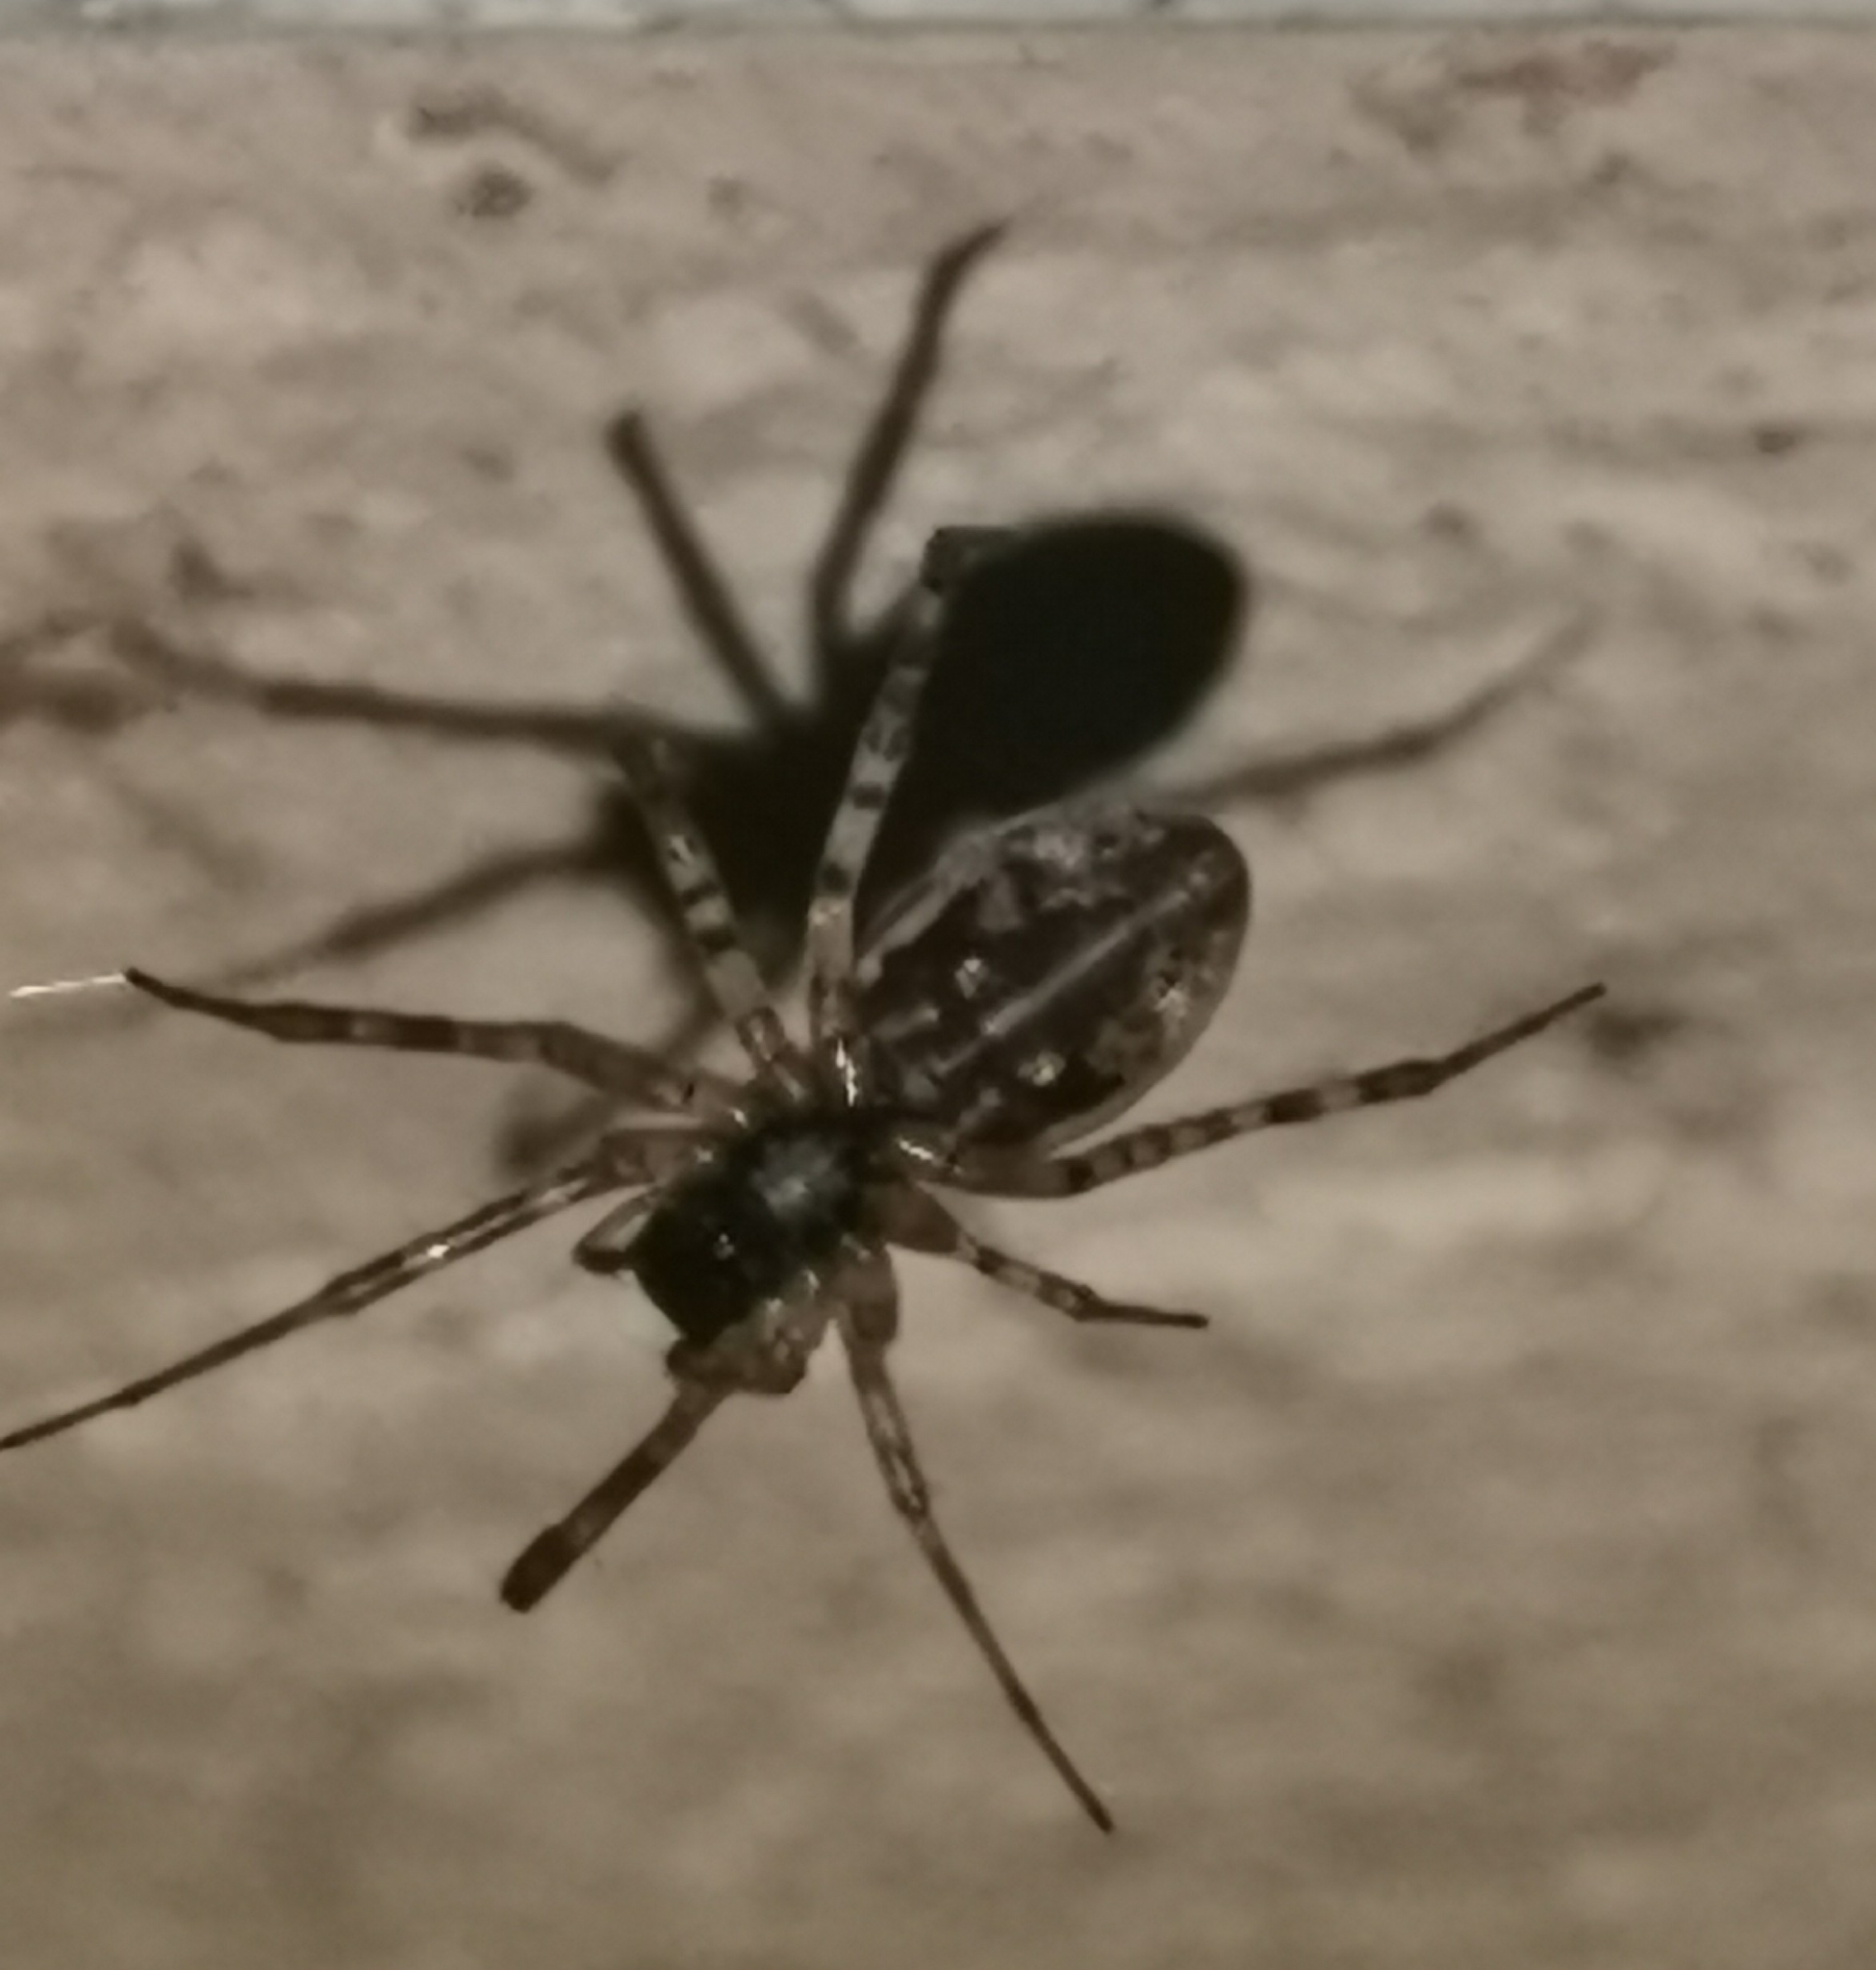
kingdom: Animalia
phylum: Arthropoda
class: Arachnida
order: Araneae
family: Linyphiidae
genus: Neriene
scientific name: Neriene montana
